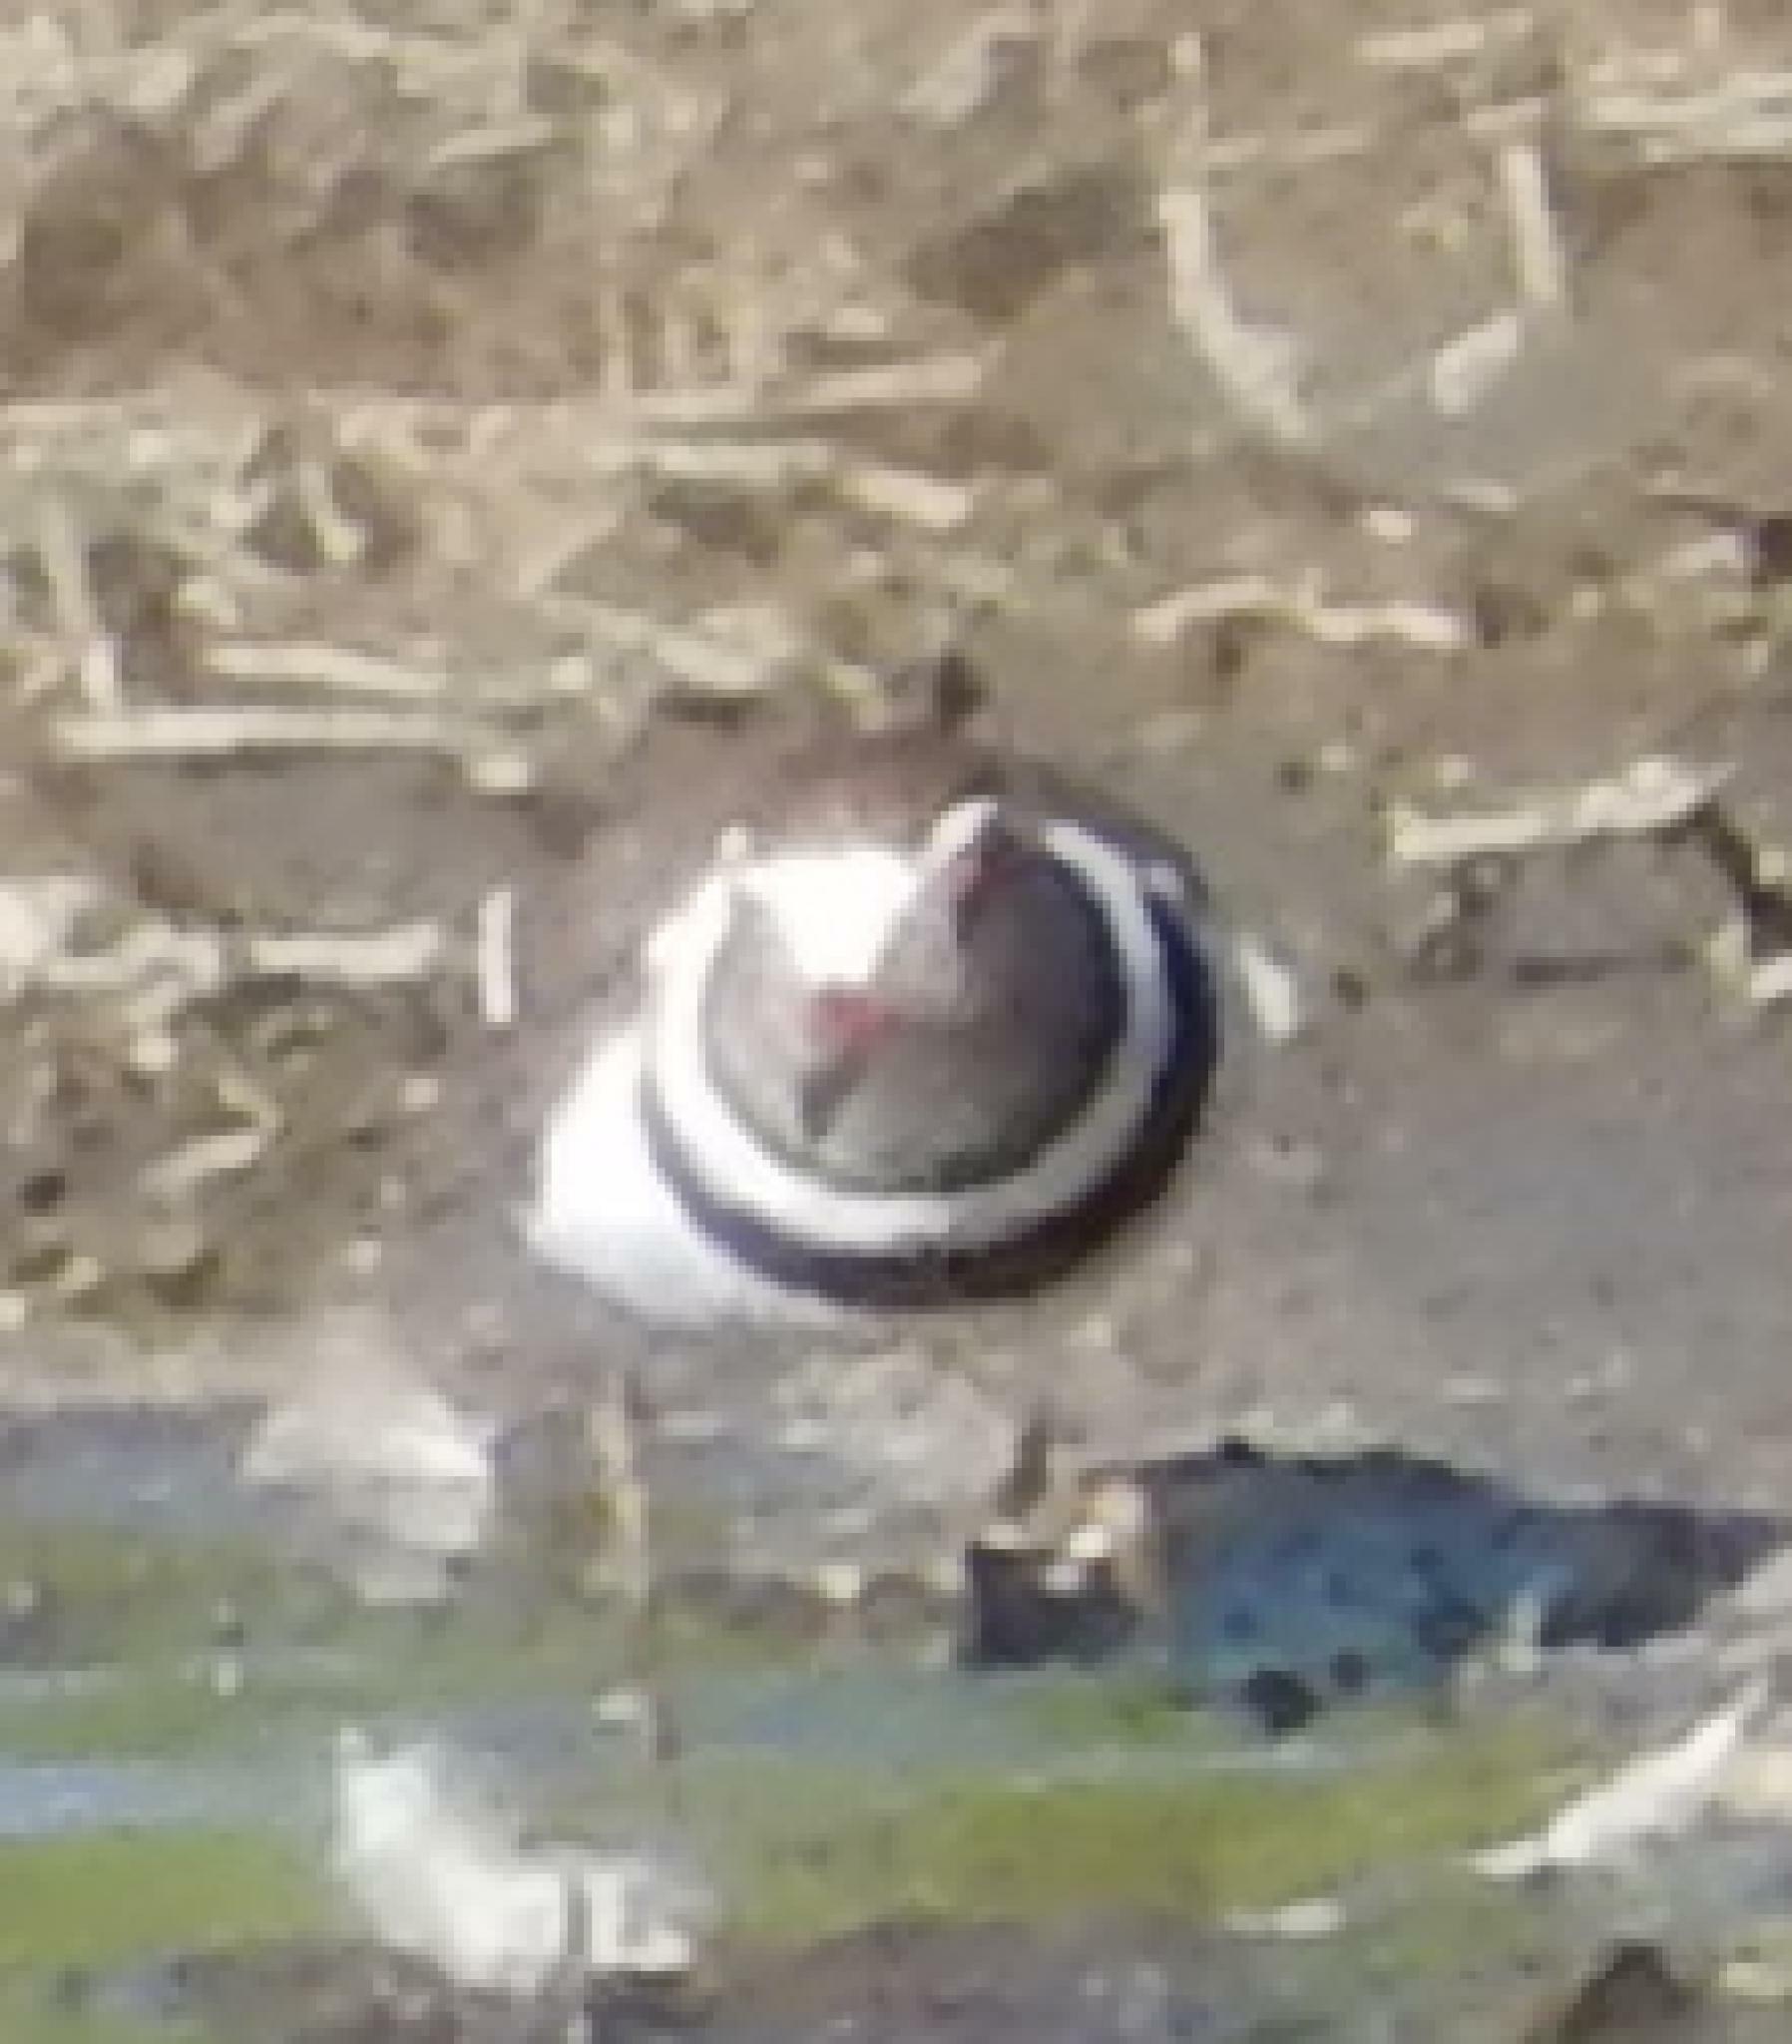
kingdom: Animalia
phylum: Chordata
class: Aves
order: Charadriiformes
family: Charadriidae
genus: Charadrius
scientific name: Charadrius tricollaris
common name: Three-banded plover
